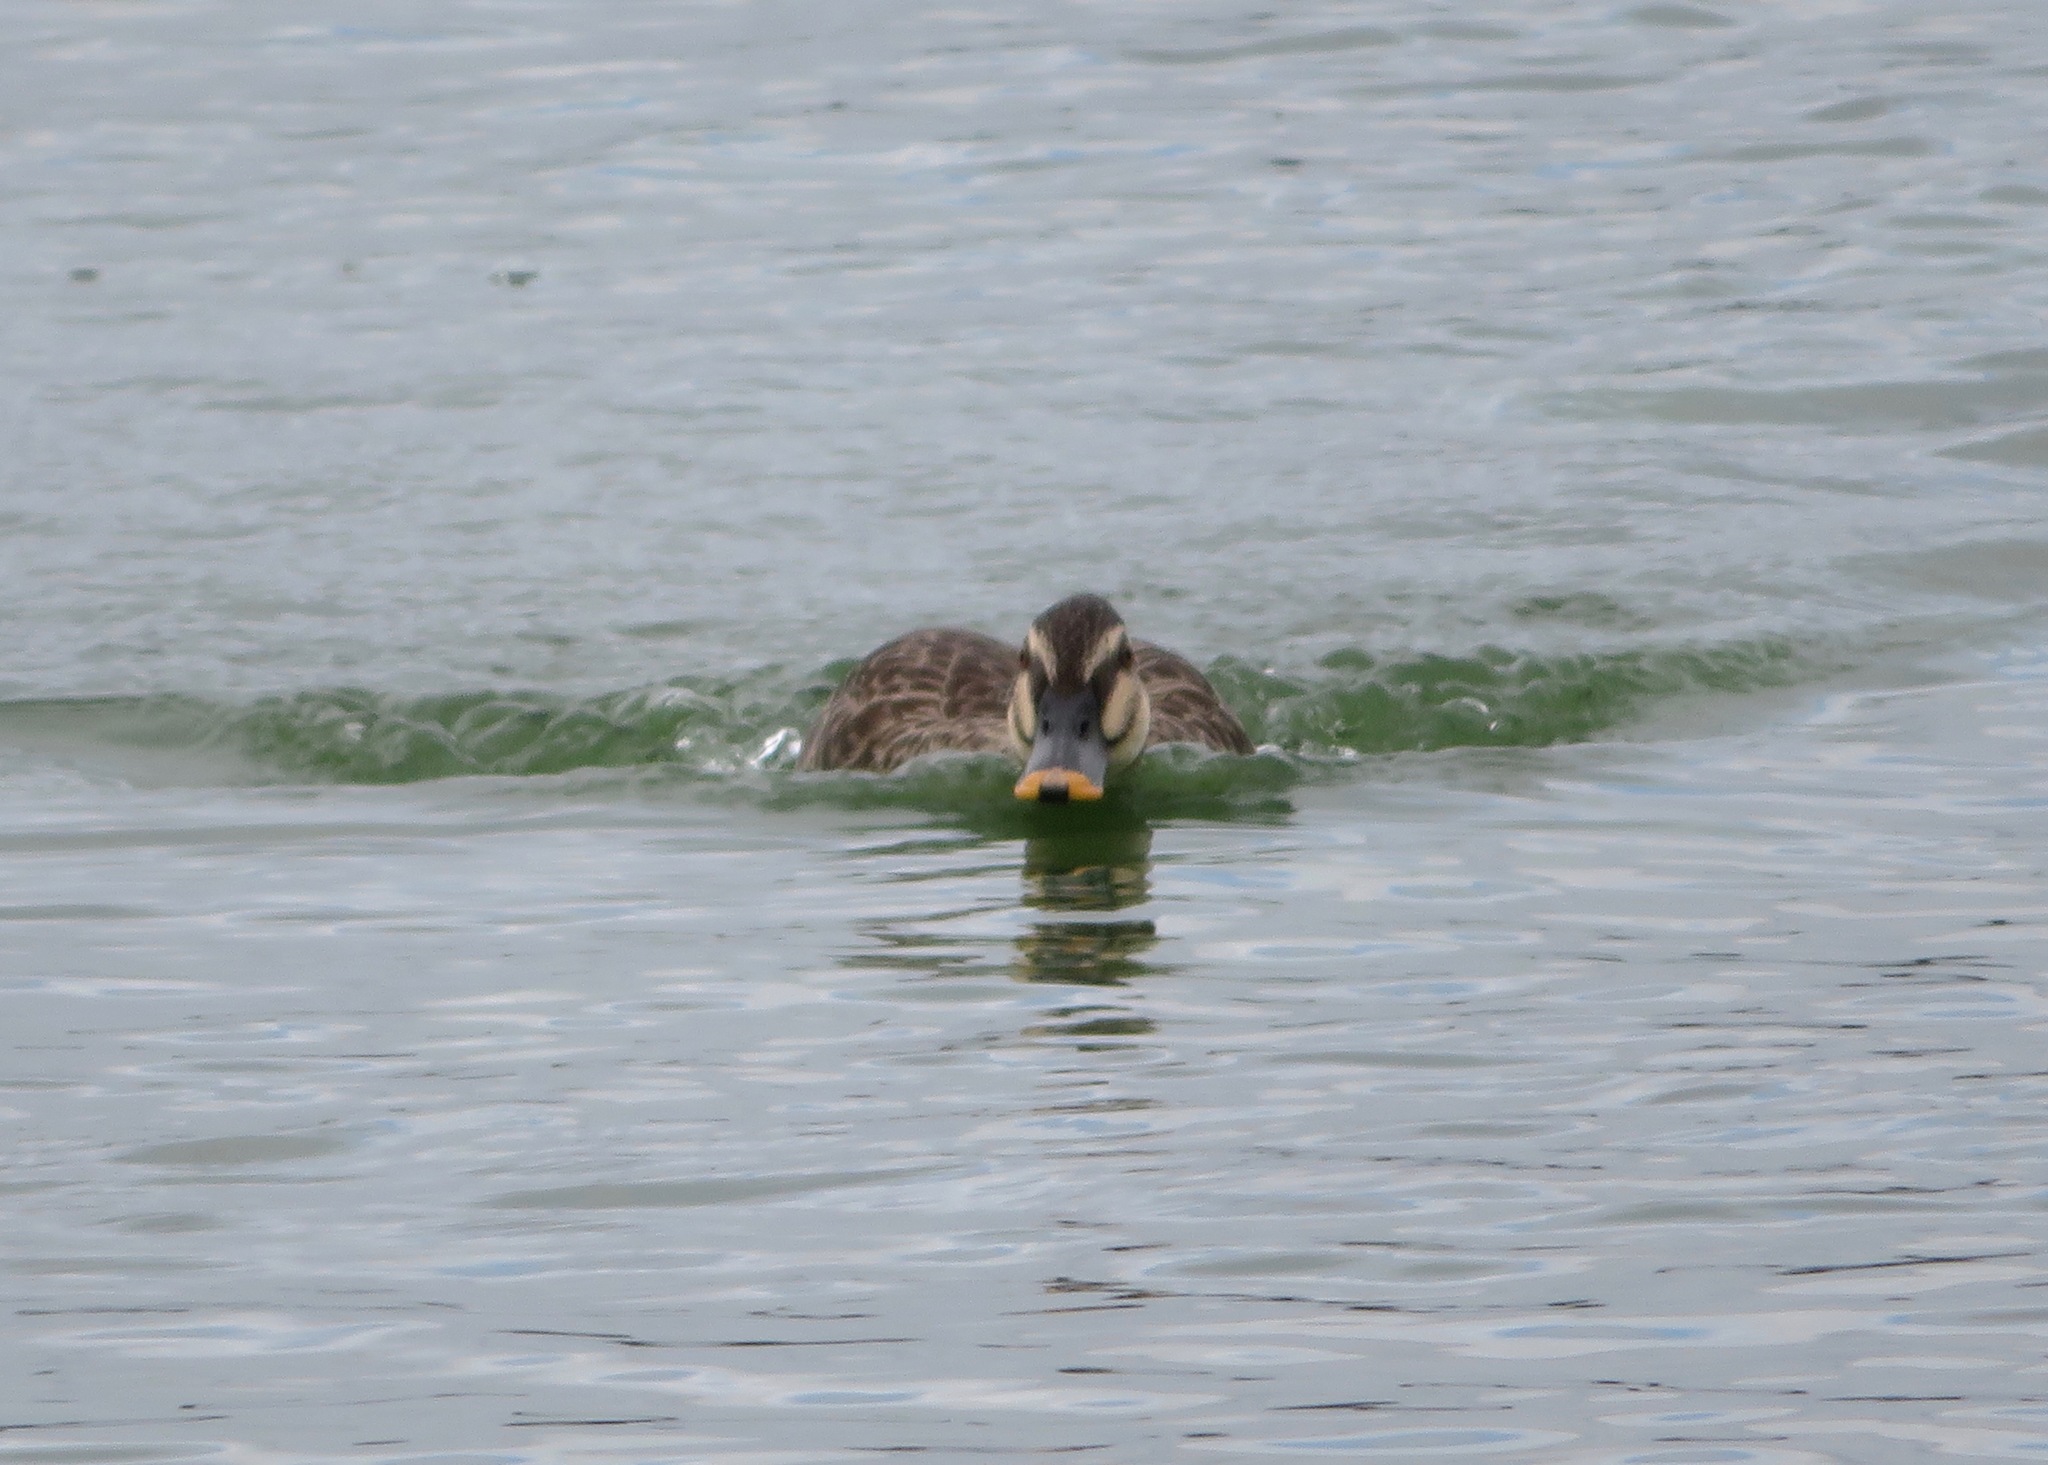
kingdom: Animalia
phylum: Chordata
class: Aves
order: Anseriformes
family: Anatidae
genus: Anas
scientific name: Anas zonorhyncha
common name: Eastern spot-billed duck
